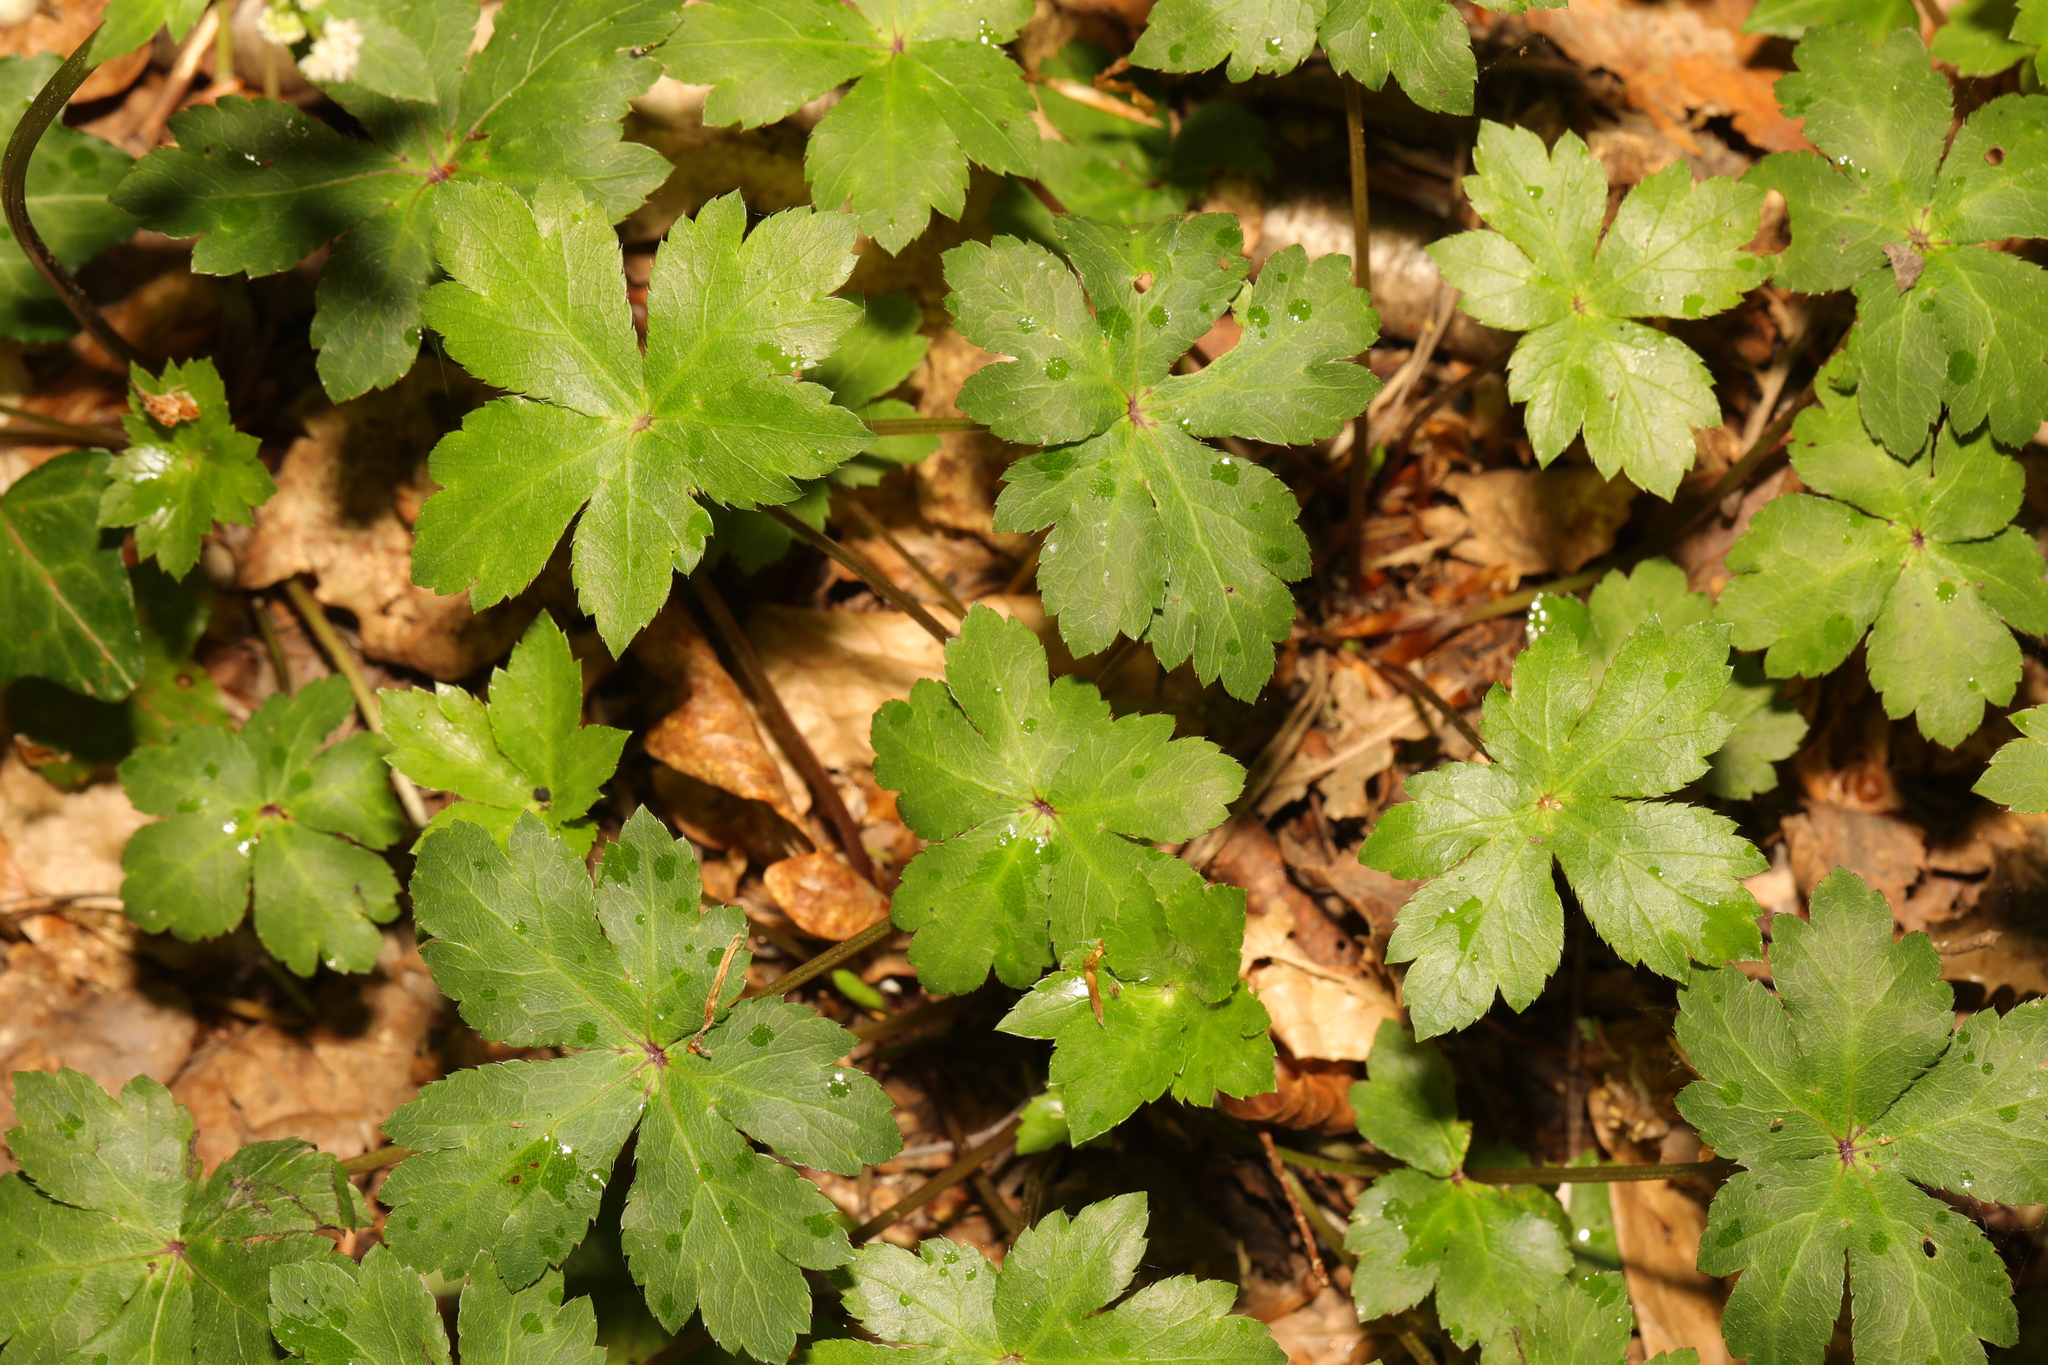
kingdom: Plantae
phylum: Tracheophyta
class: Magnoliopsida
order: Apiales
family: Apiaceae
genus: Sanicula
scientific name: Sanicula europaea
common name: Sanicle
